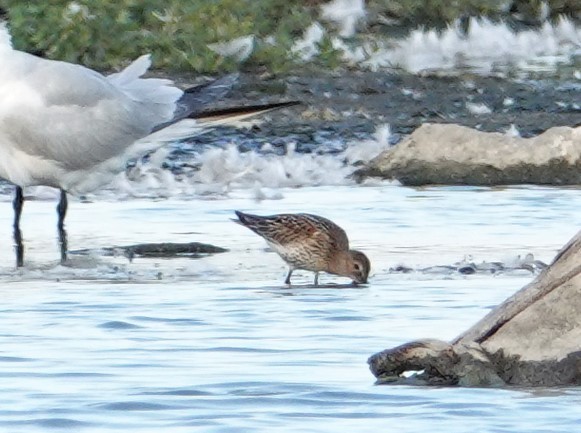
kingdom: Animalia
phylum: Chordata
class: Aves
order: Charadriiformes
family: Scolopacidae
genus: Calidris
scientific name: Calidris alpina
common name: Dunlin
